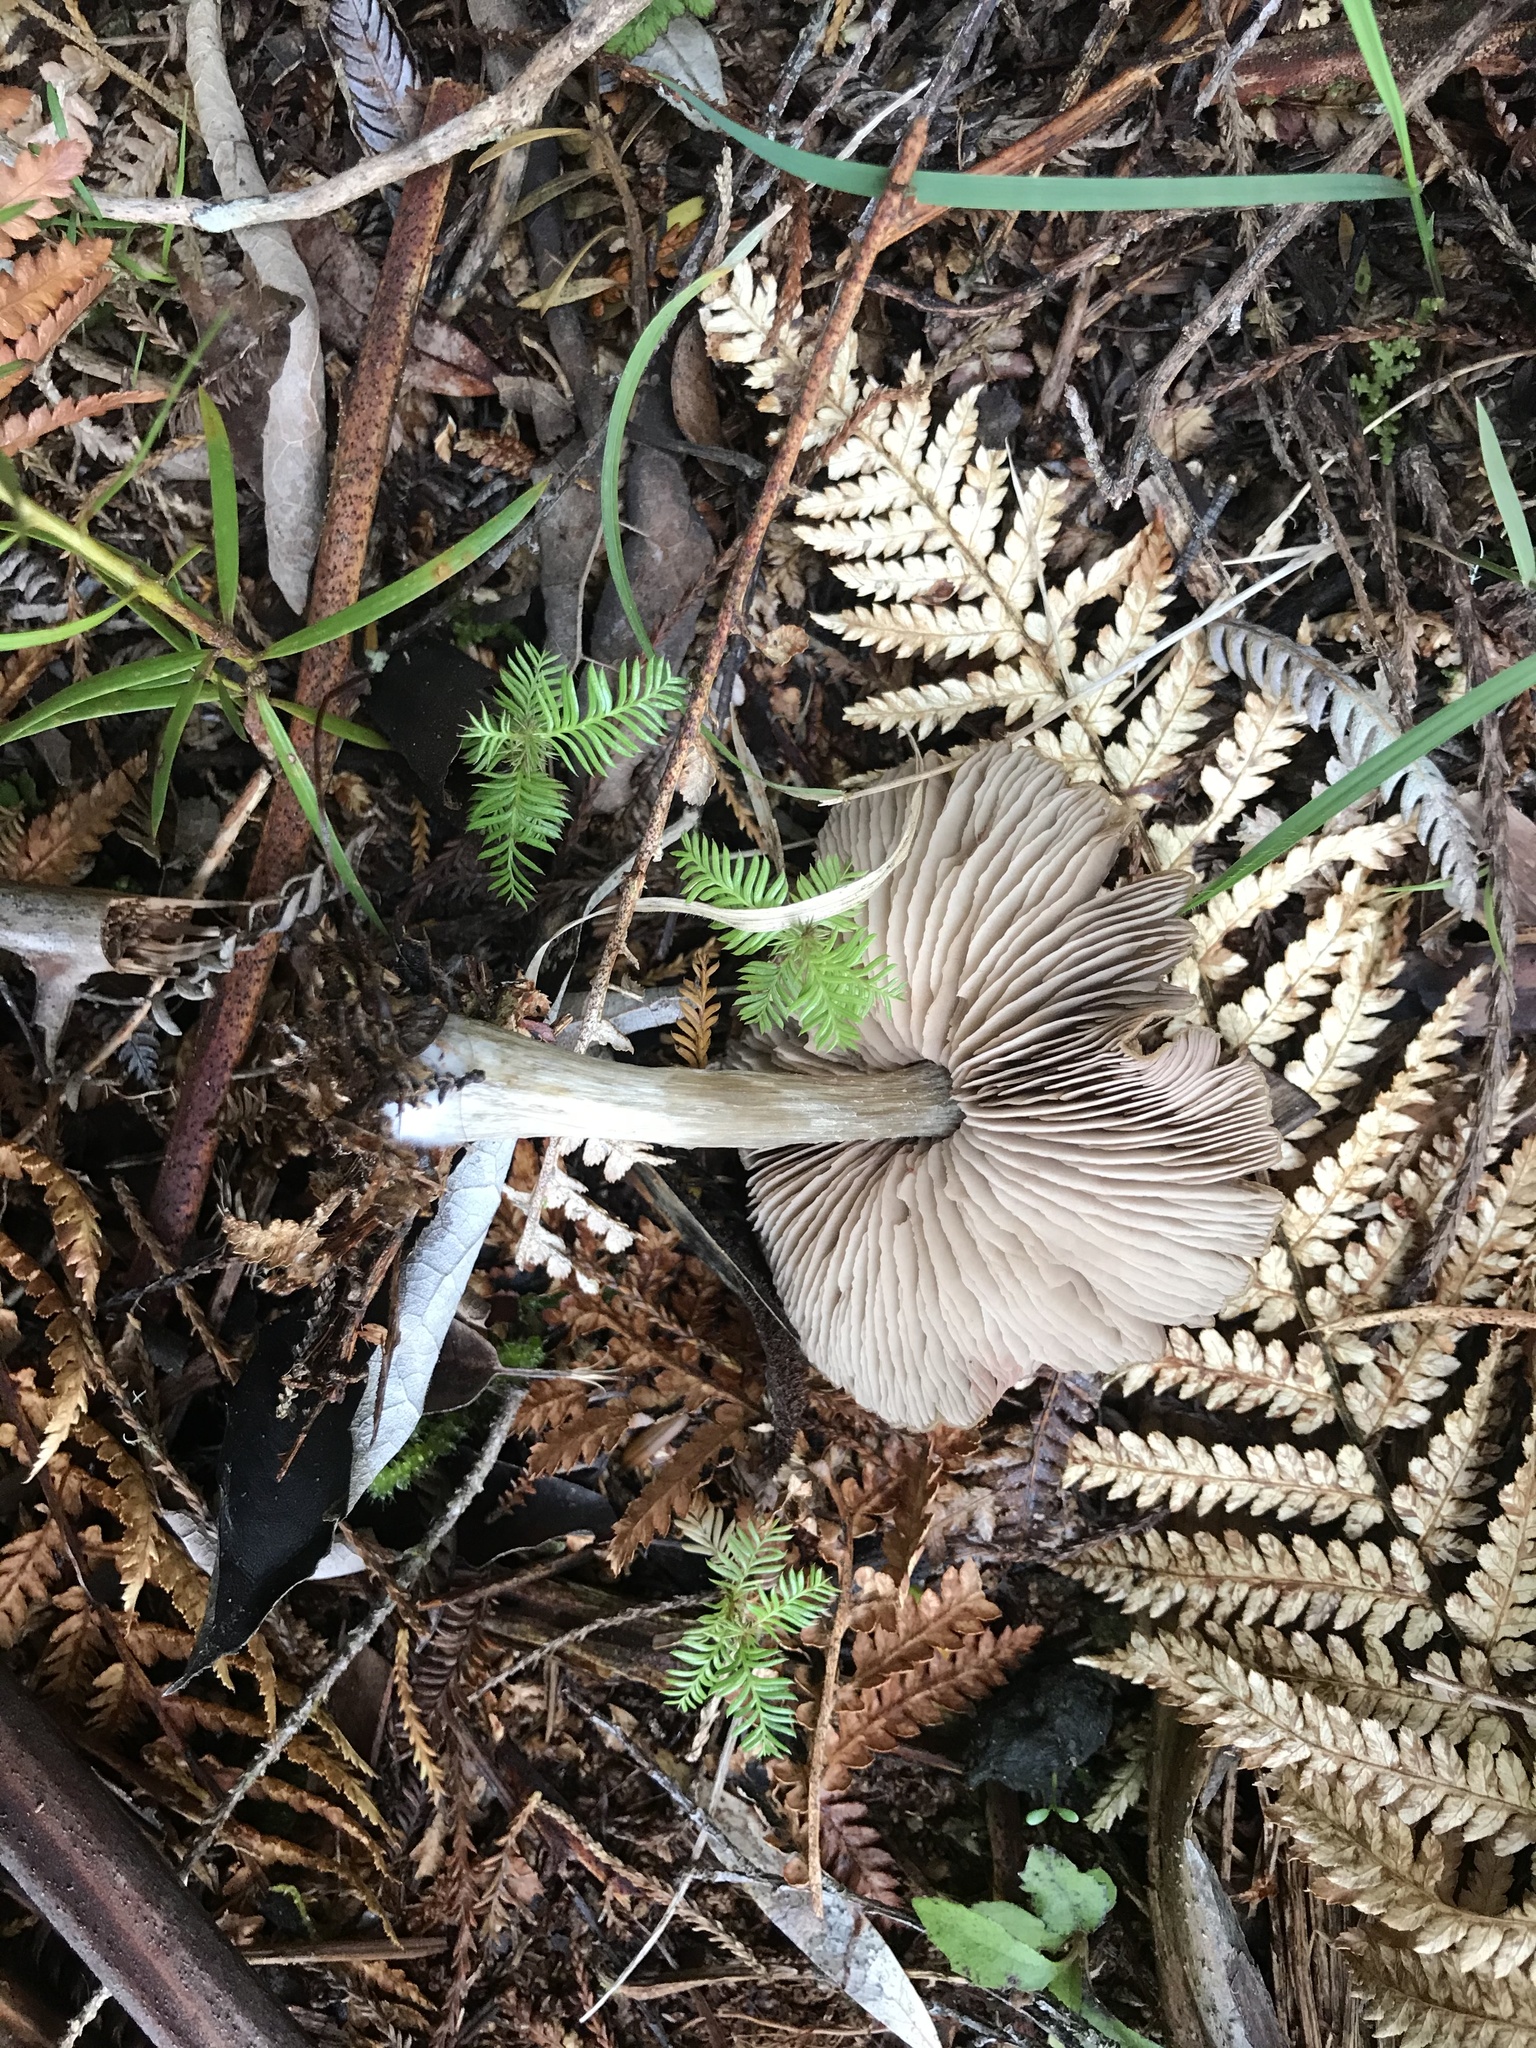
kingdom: Fungi
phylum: Basidiomycota
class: Agaricomycetes
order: Agaricales
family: Entolomataceae
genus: Entoloma
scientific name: Entoloma translucidum
